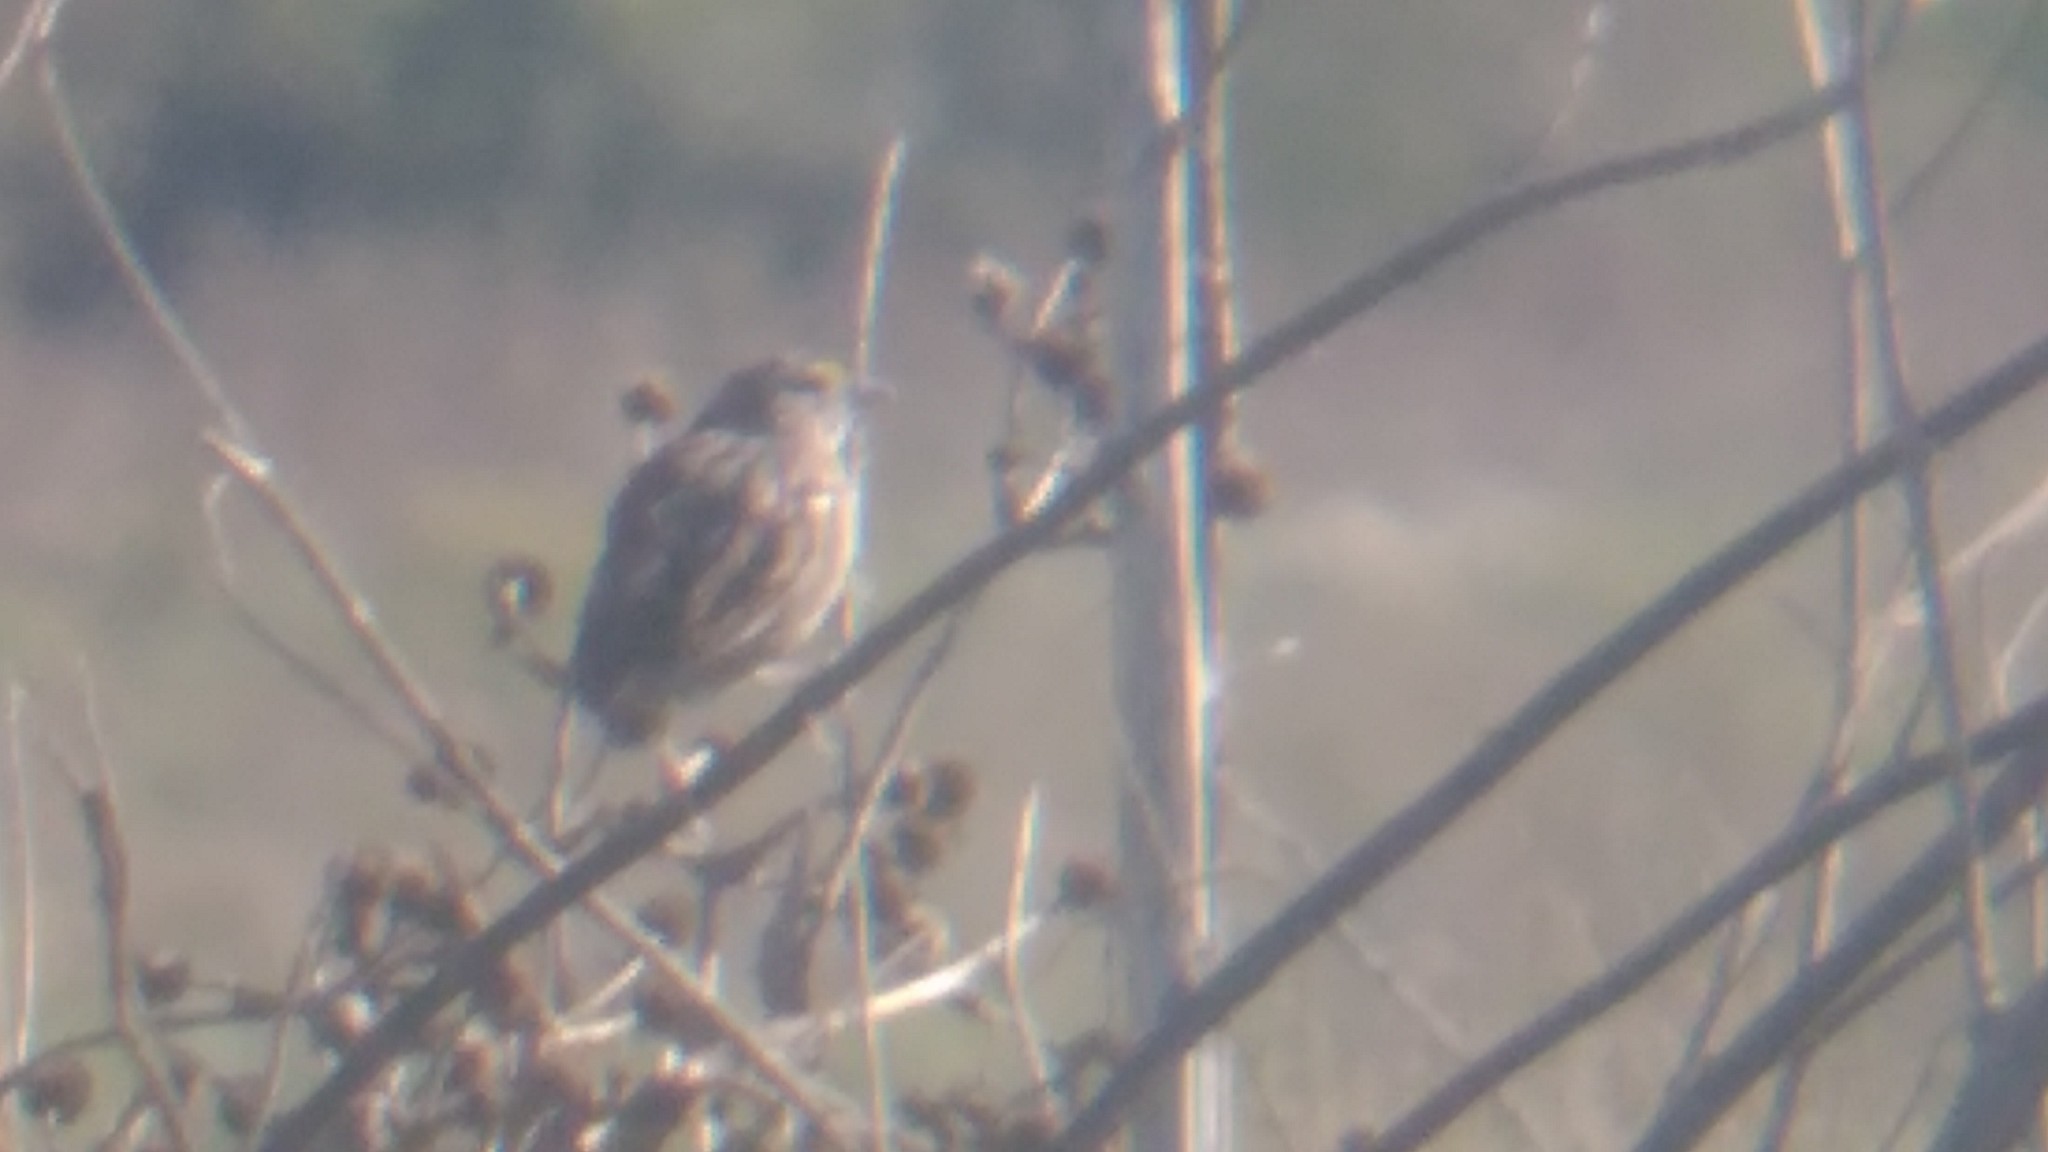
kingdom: Animalia
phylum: Chordata
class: Aves
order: Passeriformes
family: Passerellidae
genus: Ammodramus
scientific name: Ammodramus humeralis
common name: Grassland sparrow
